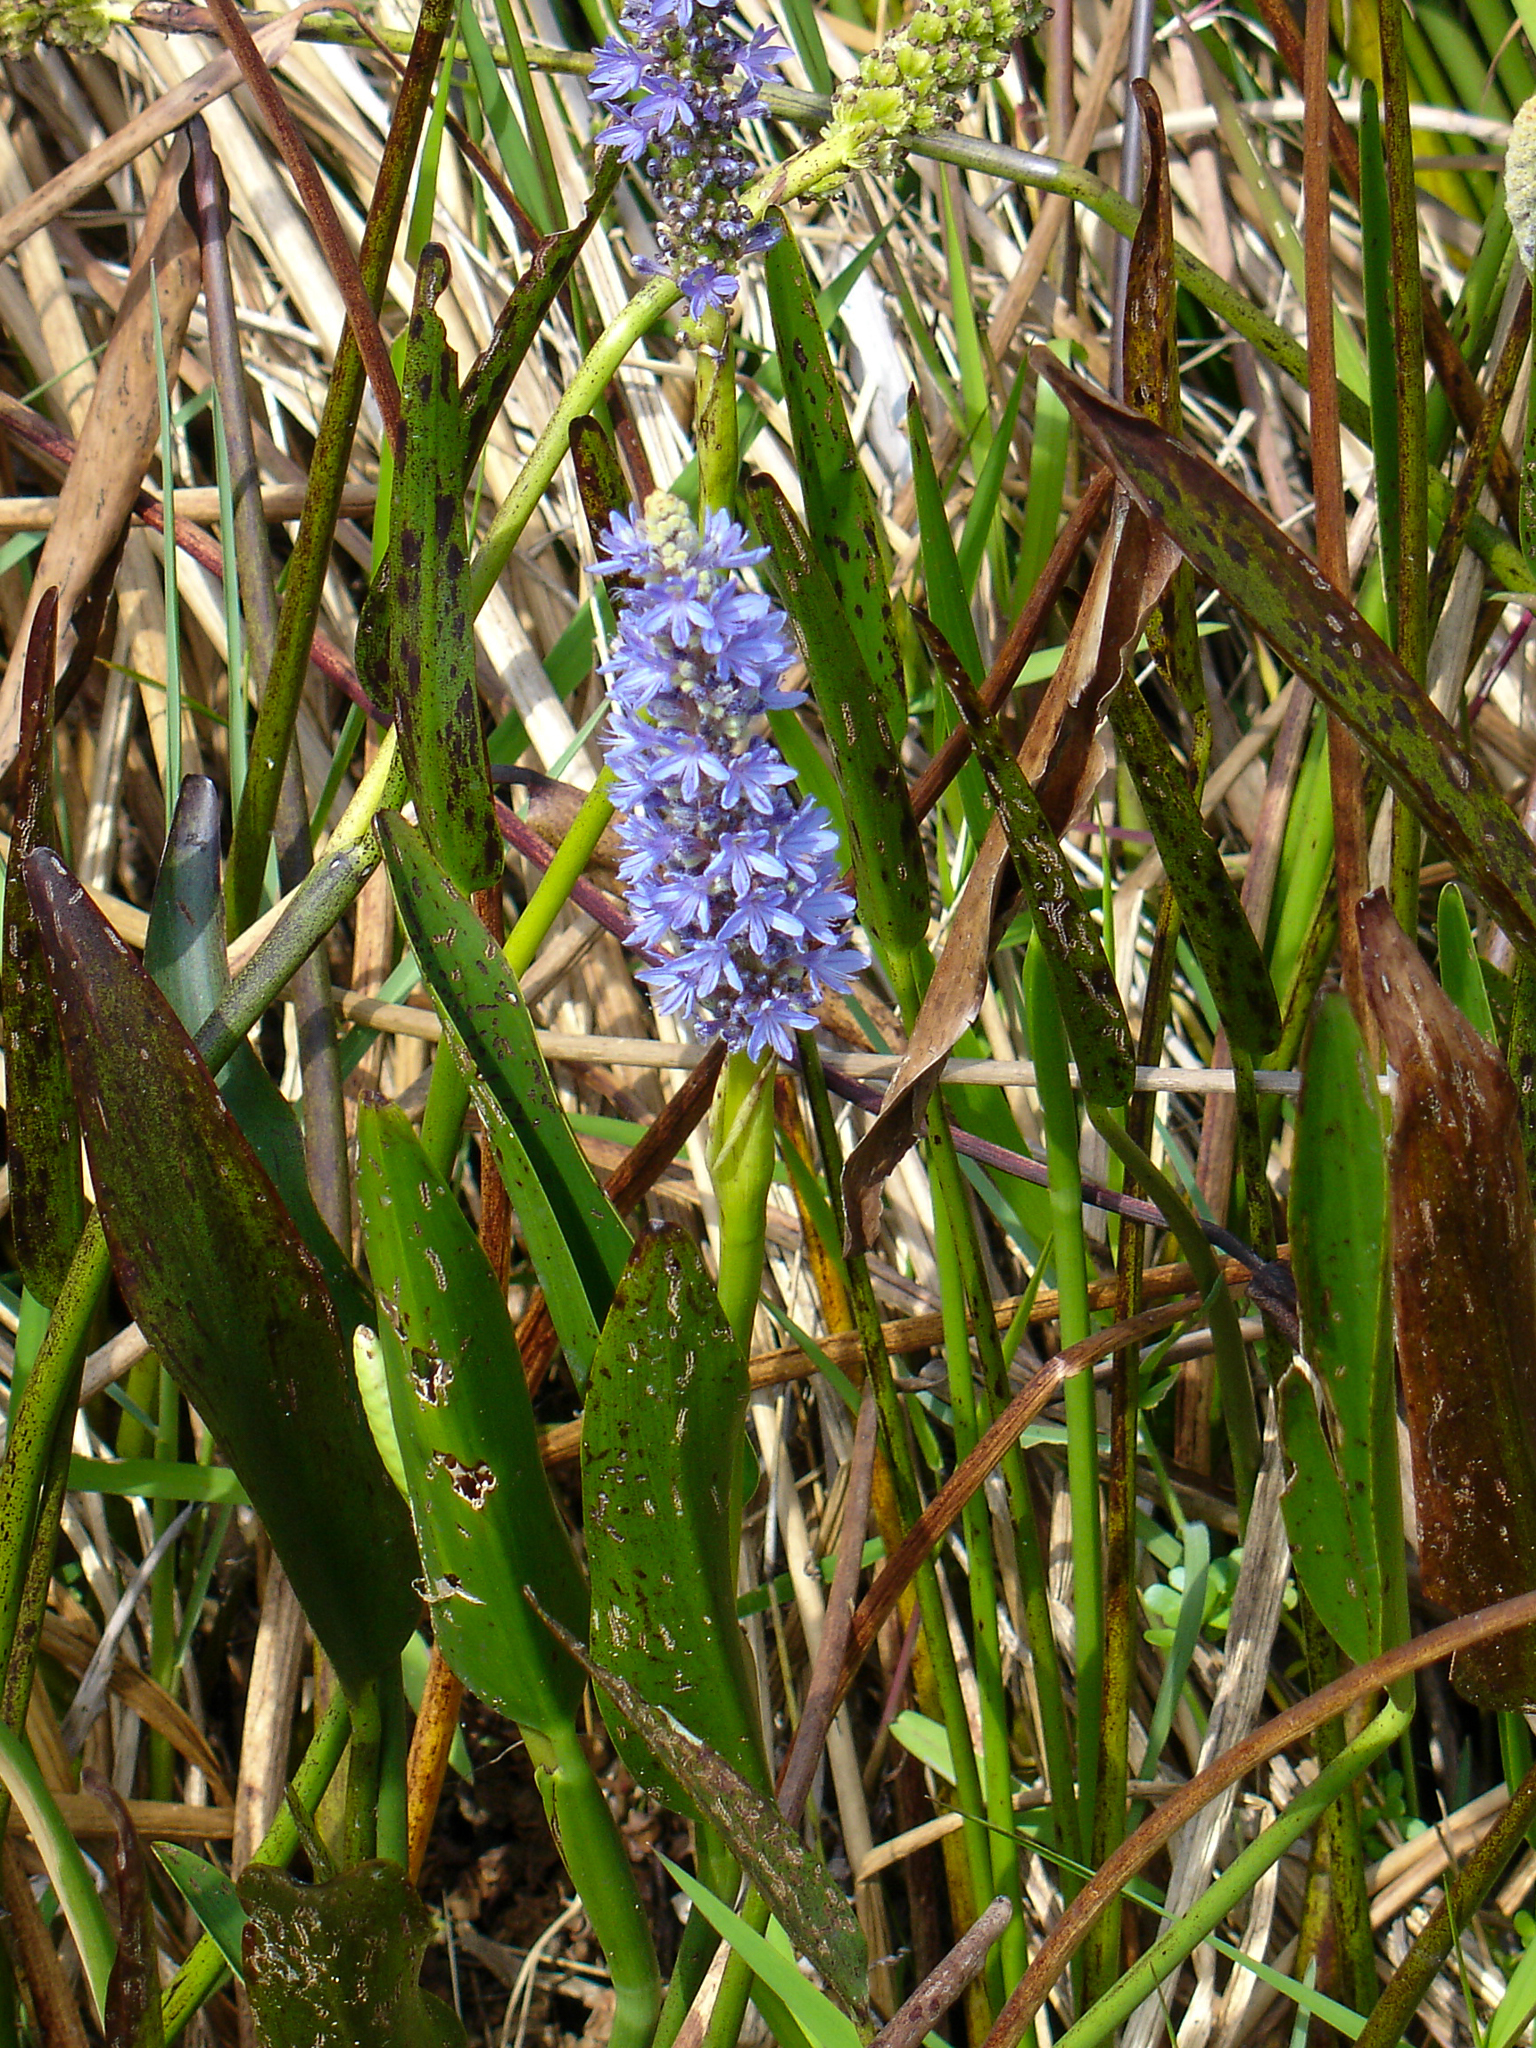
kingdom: Plantae
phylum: Tracheophyta
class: Liliopsida
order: Commelinales
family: Pontederiaceae
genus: Pontederia
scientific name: Pontederia cordata
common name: Pickerelweed
